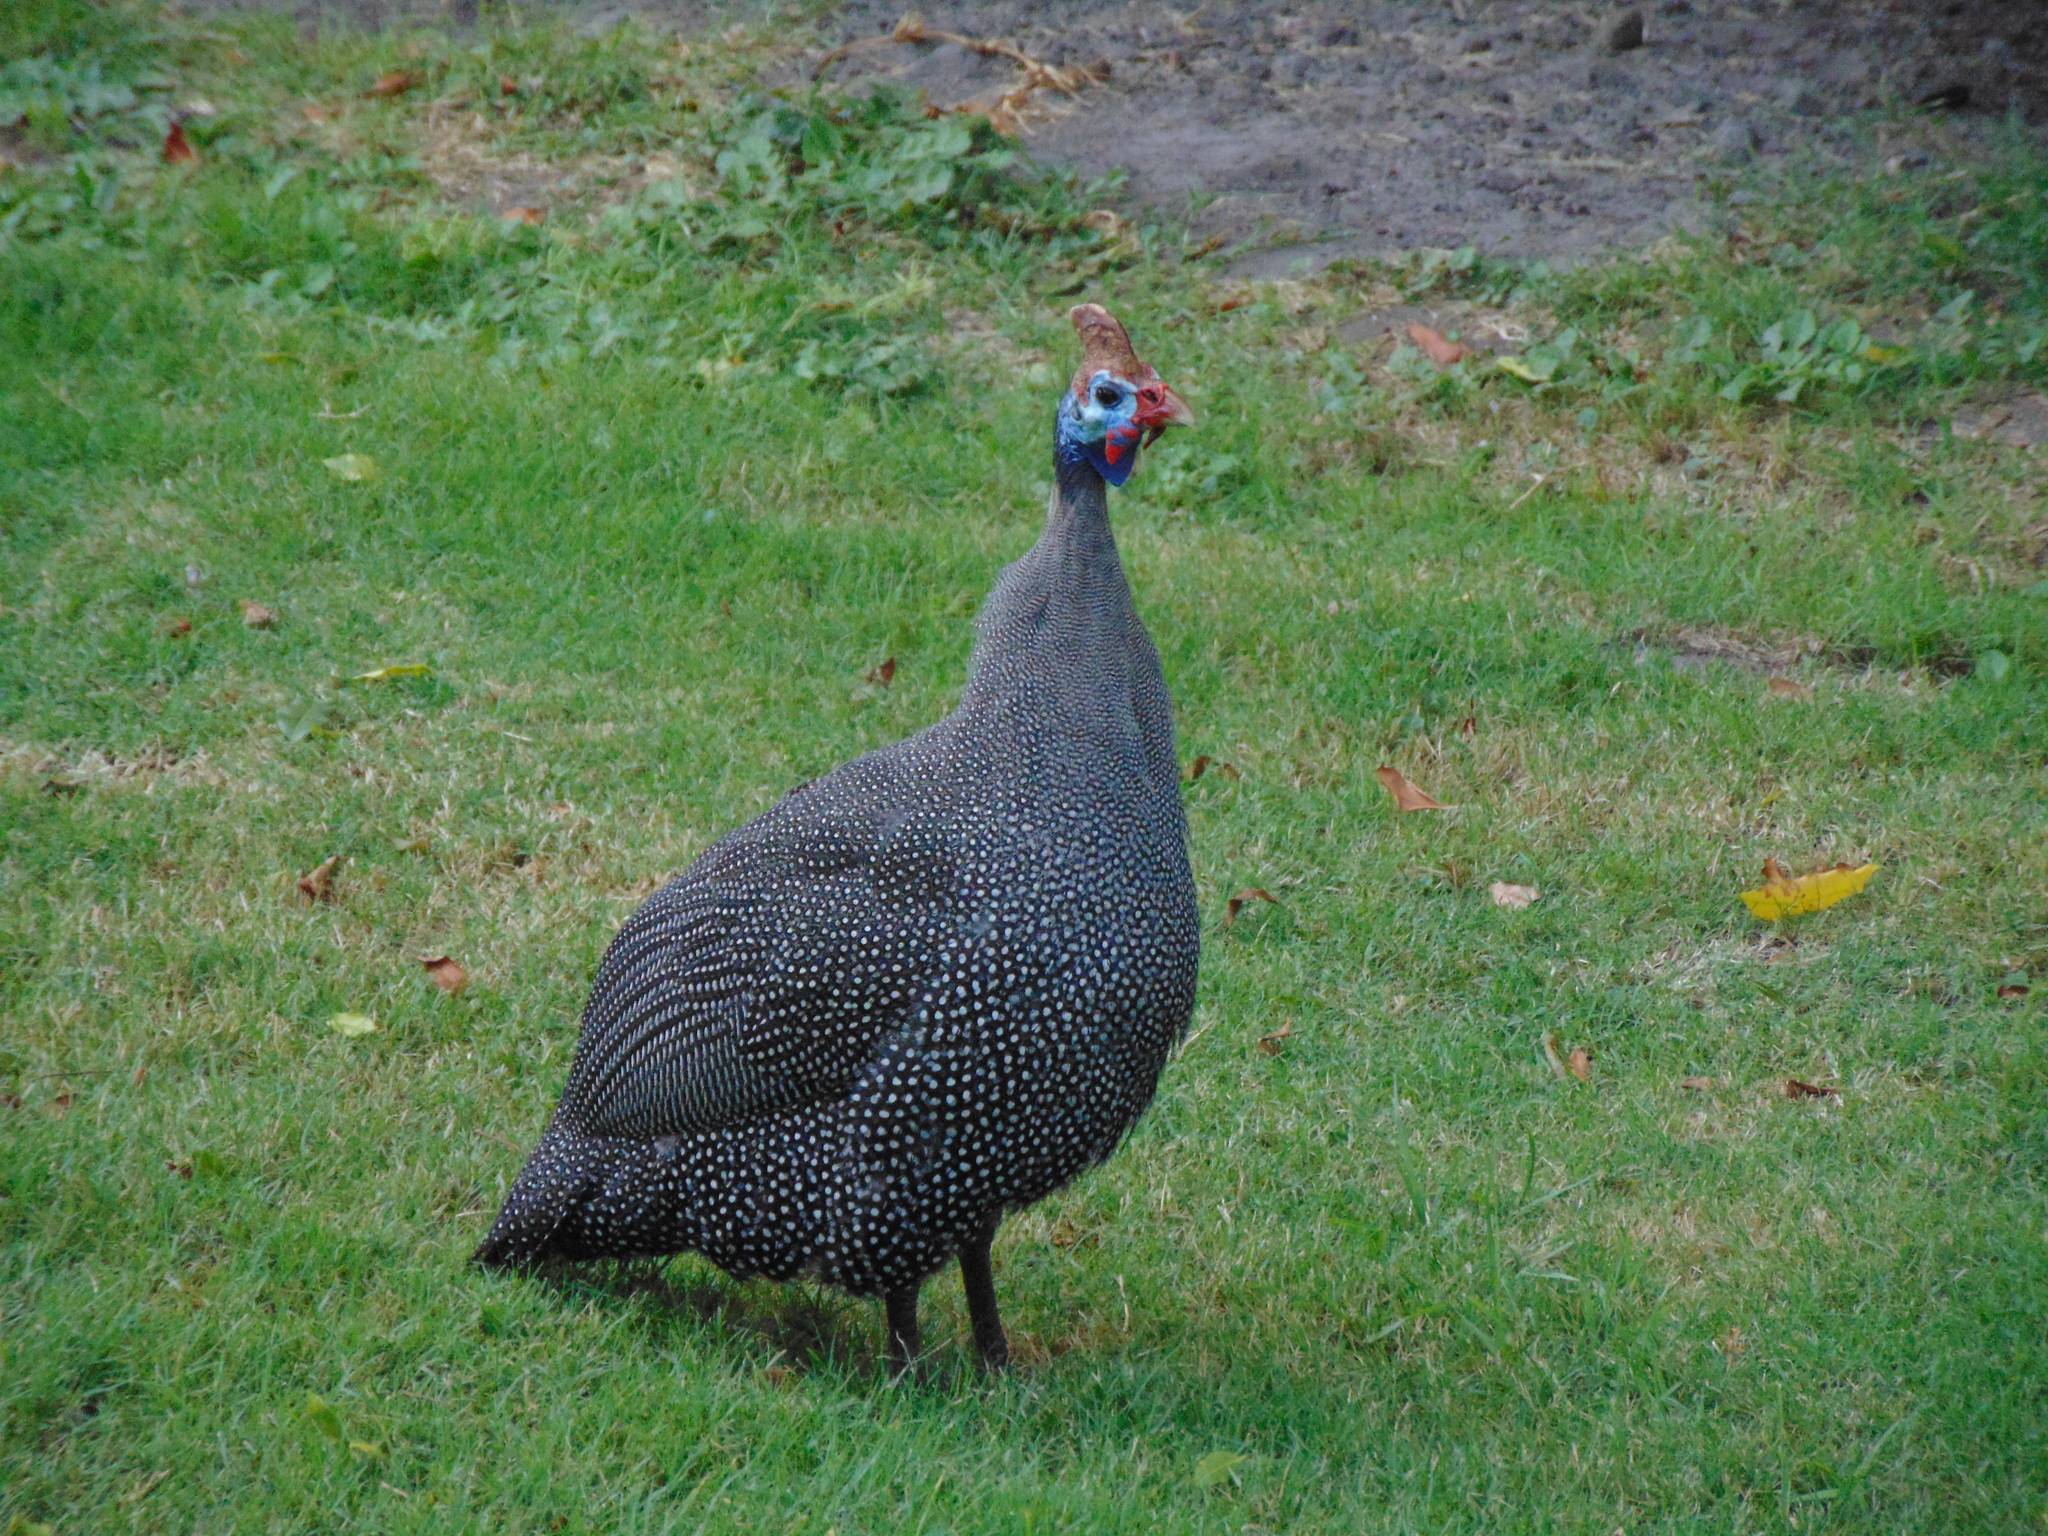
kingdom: Animalia
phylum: Chordata
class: Aves
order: Galliformes
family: Numididae
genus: Numida
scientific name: Numida meleagris
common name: Helmeted guineafowl
